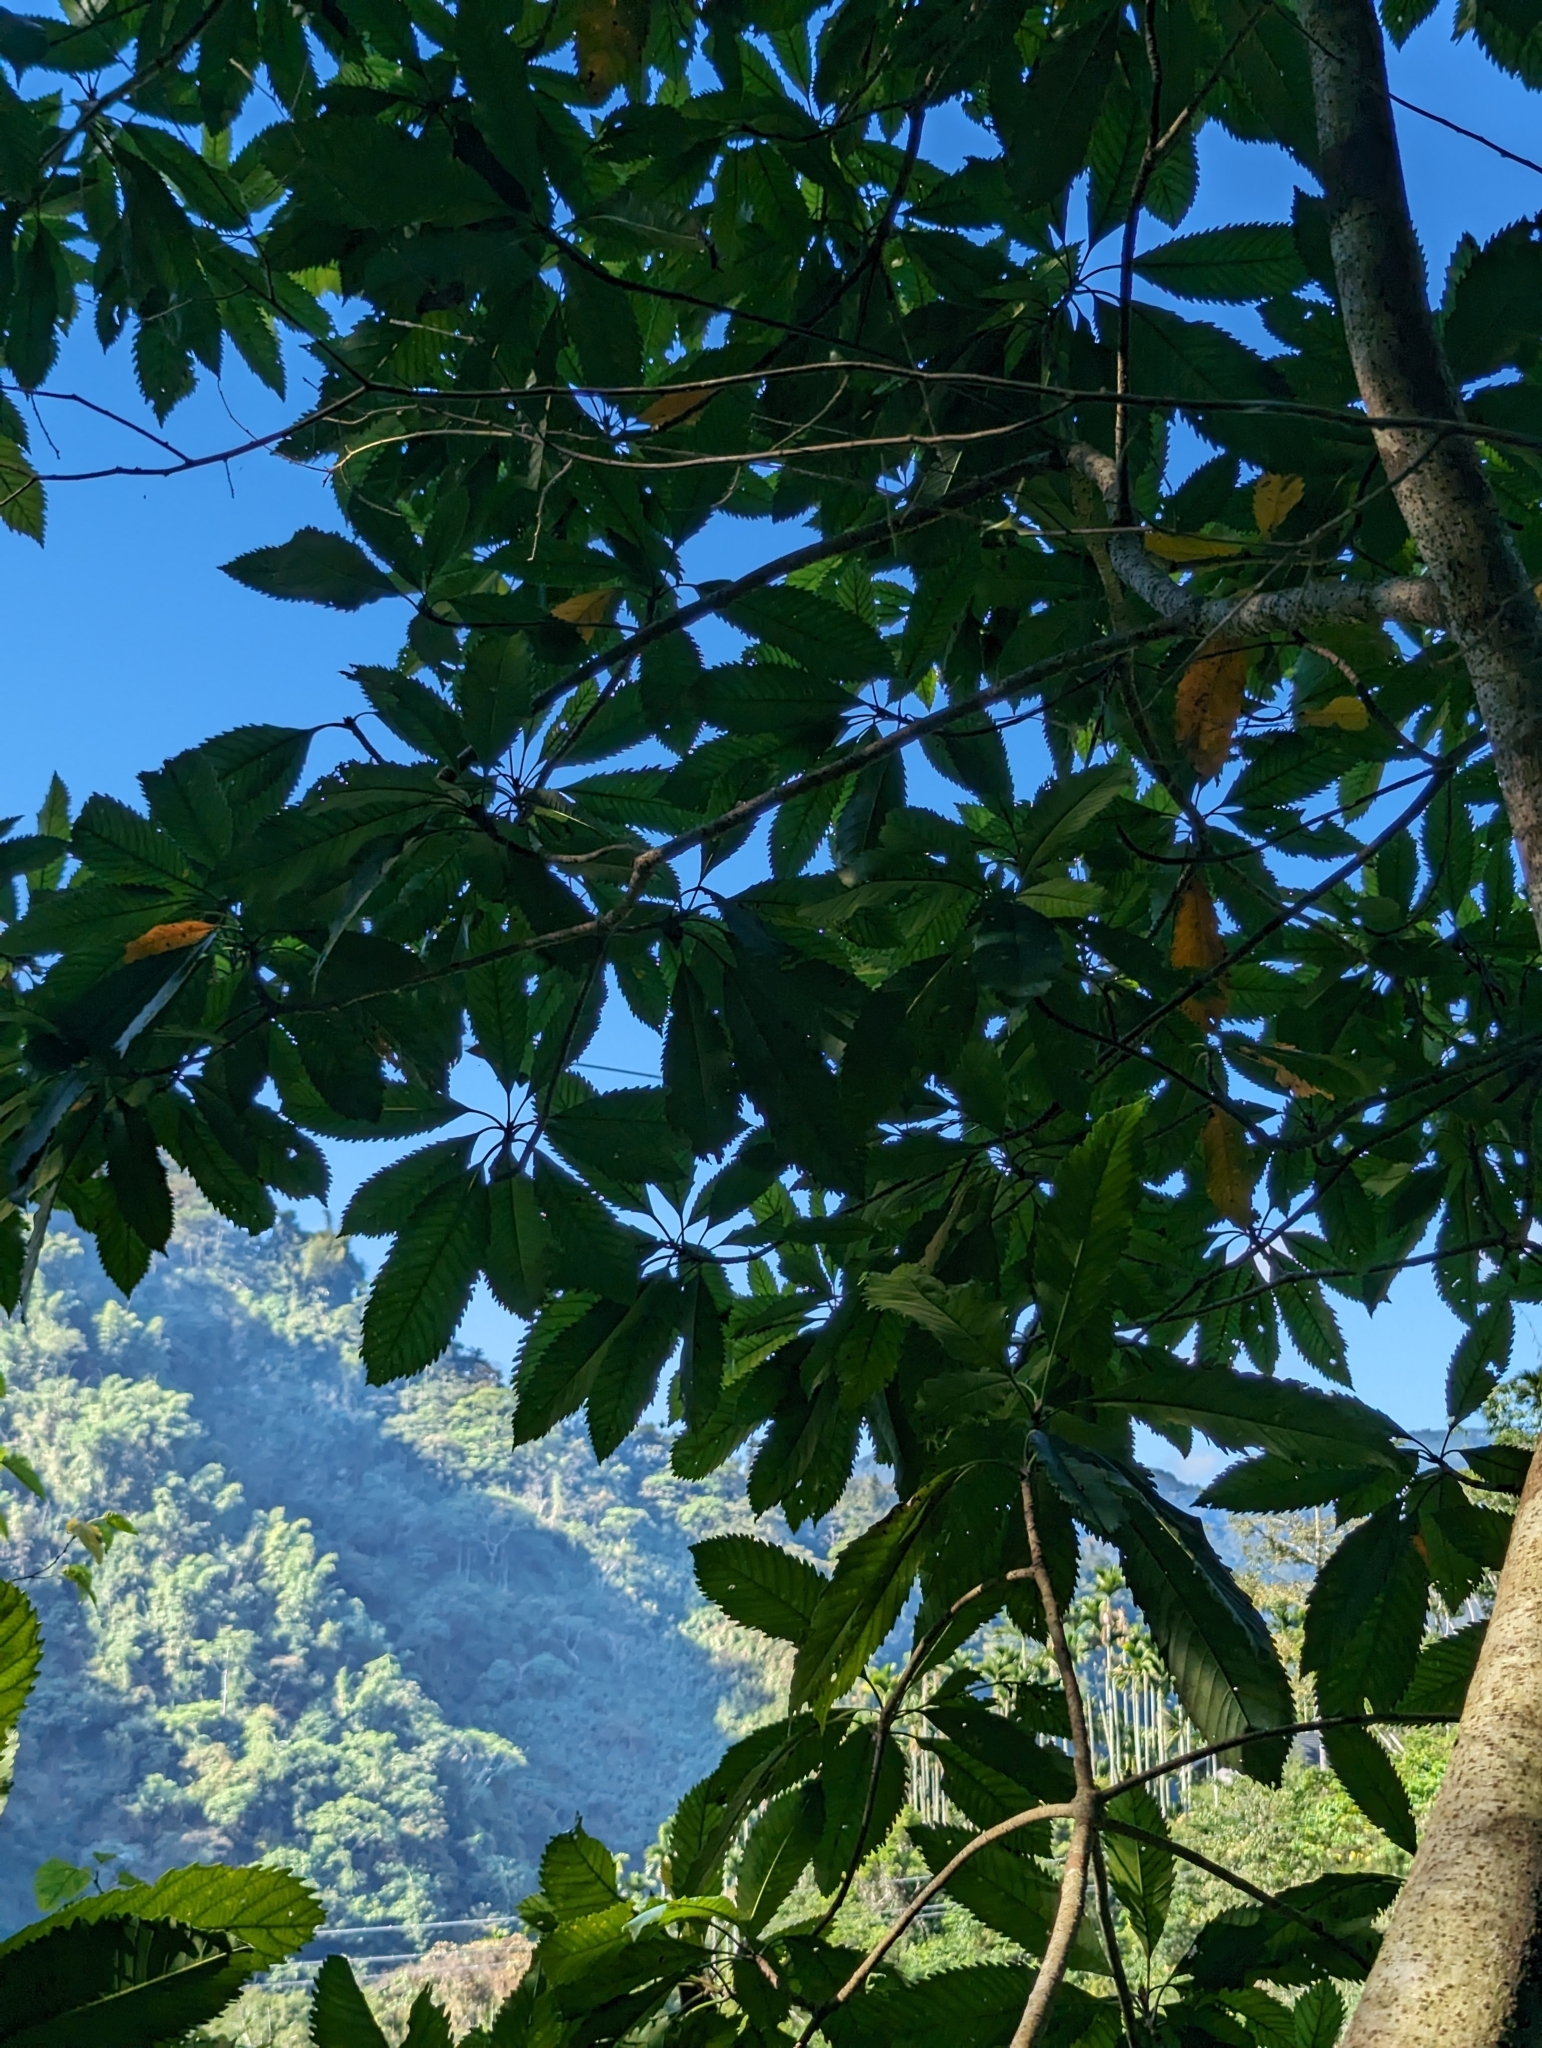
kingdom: Plantae
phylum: Tracheophyta
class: Magnoliopsida
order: Rosales
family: Rosaceae
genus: Rhaphiolepis
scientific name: Rhaphiolepis deflexa
